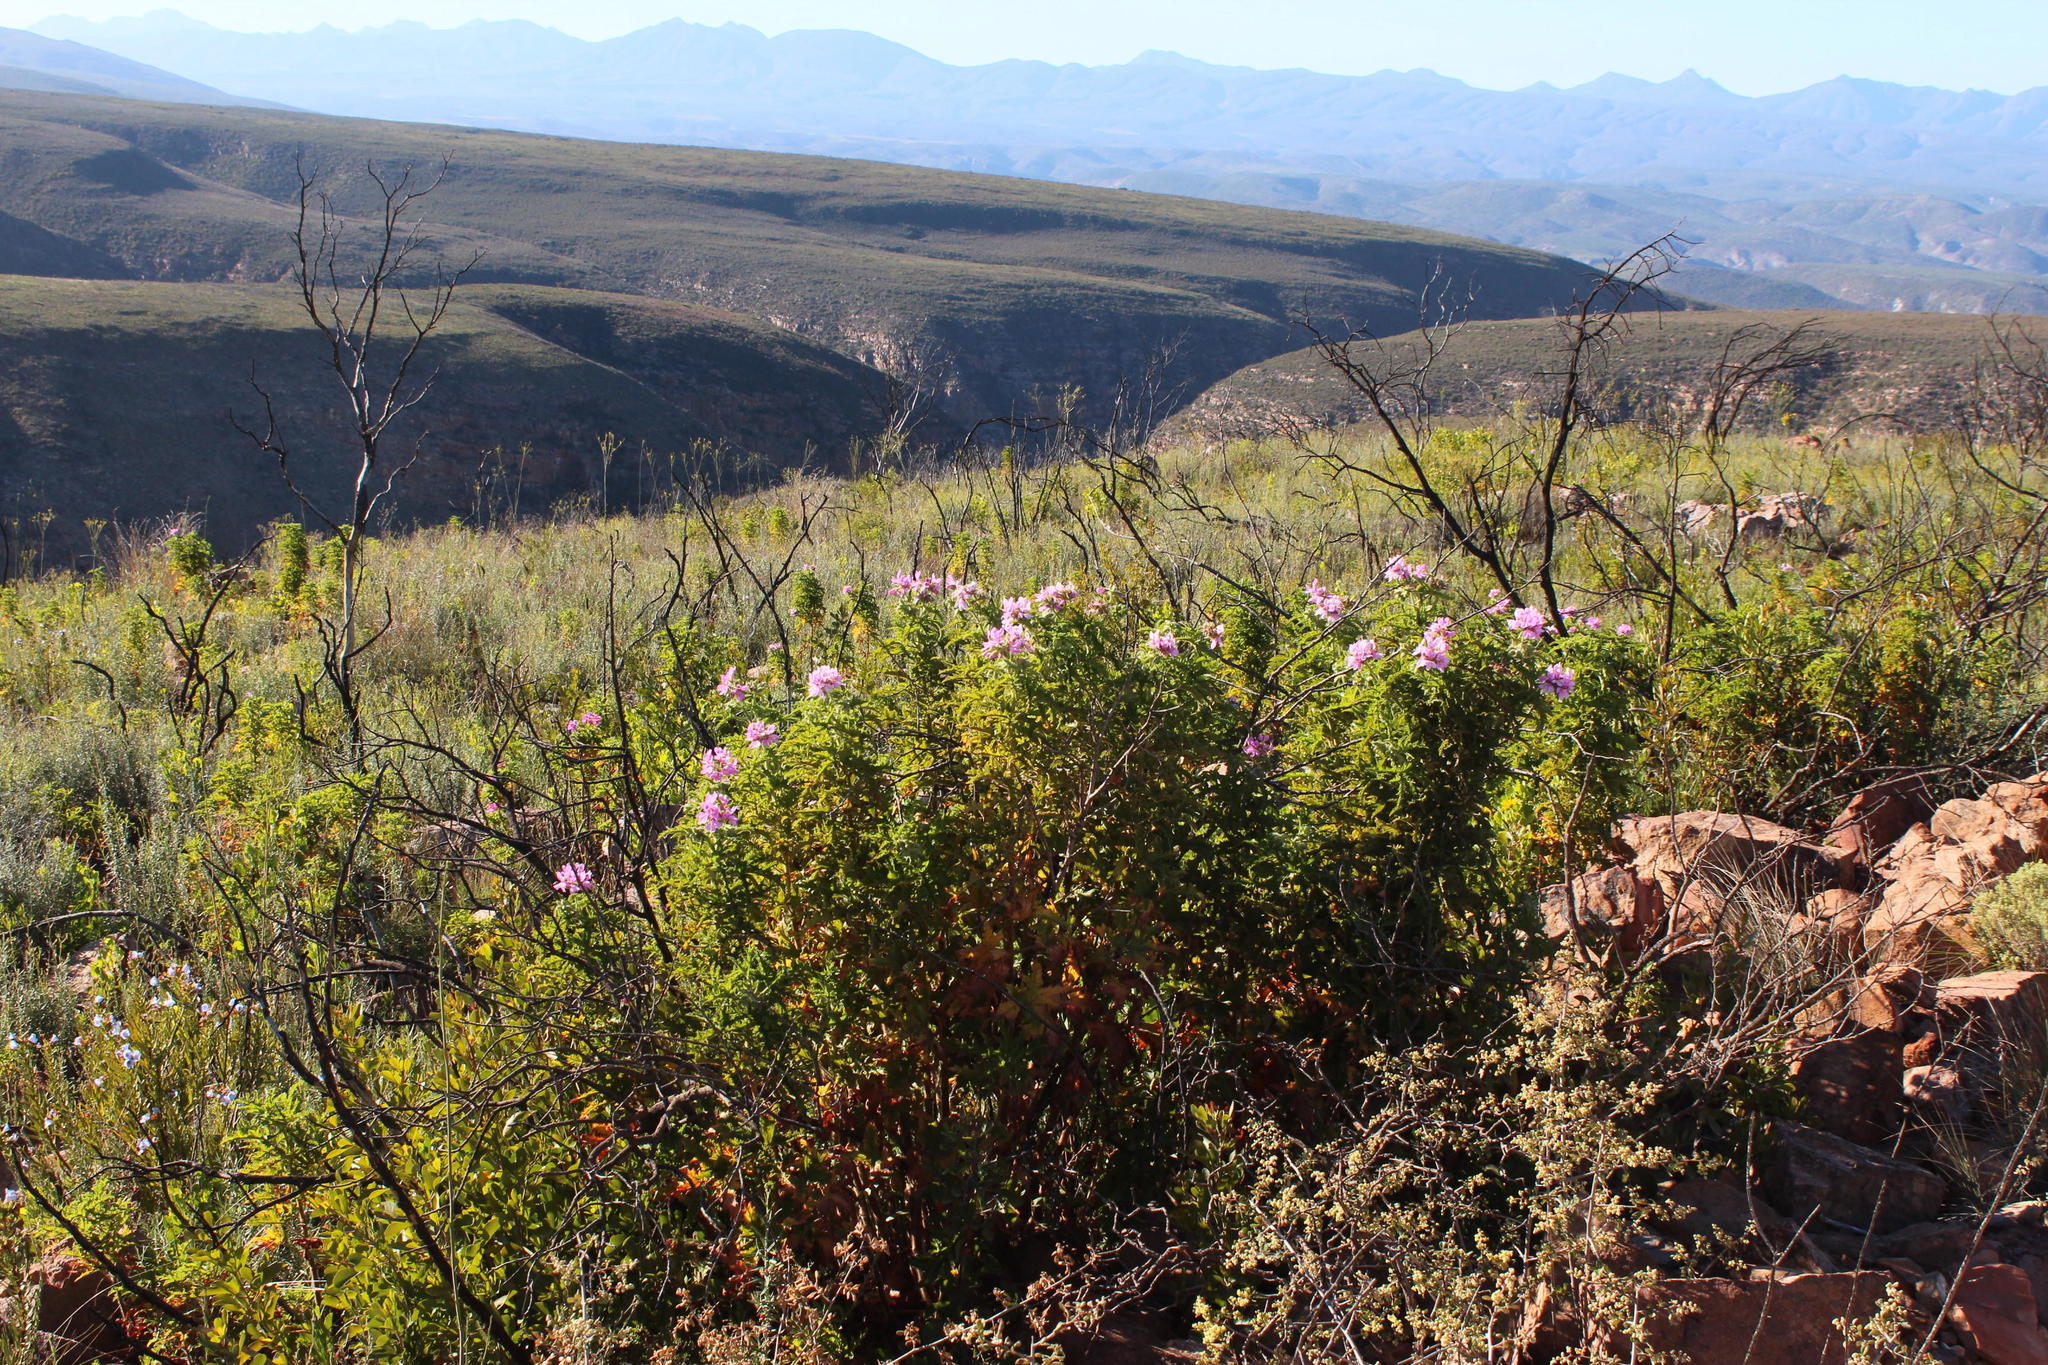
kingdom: Plantae
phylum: Tracheophyta
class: Magnoliopsida
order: Geraniales
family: Geraniaceae
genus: Pelargonium
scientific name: Pelargonium glutinosum
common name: Pheasant-foot geranium
